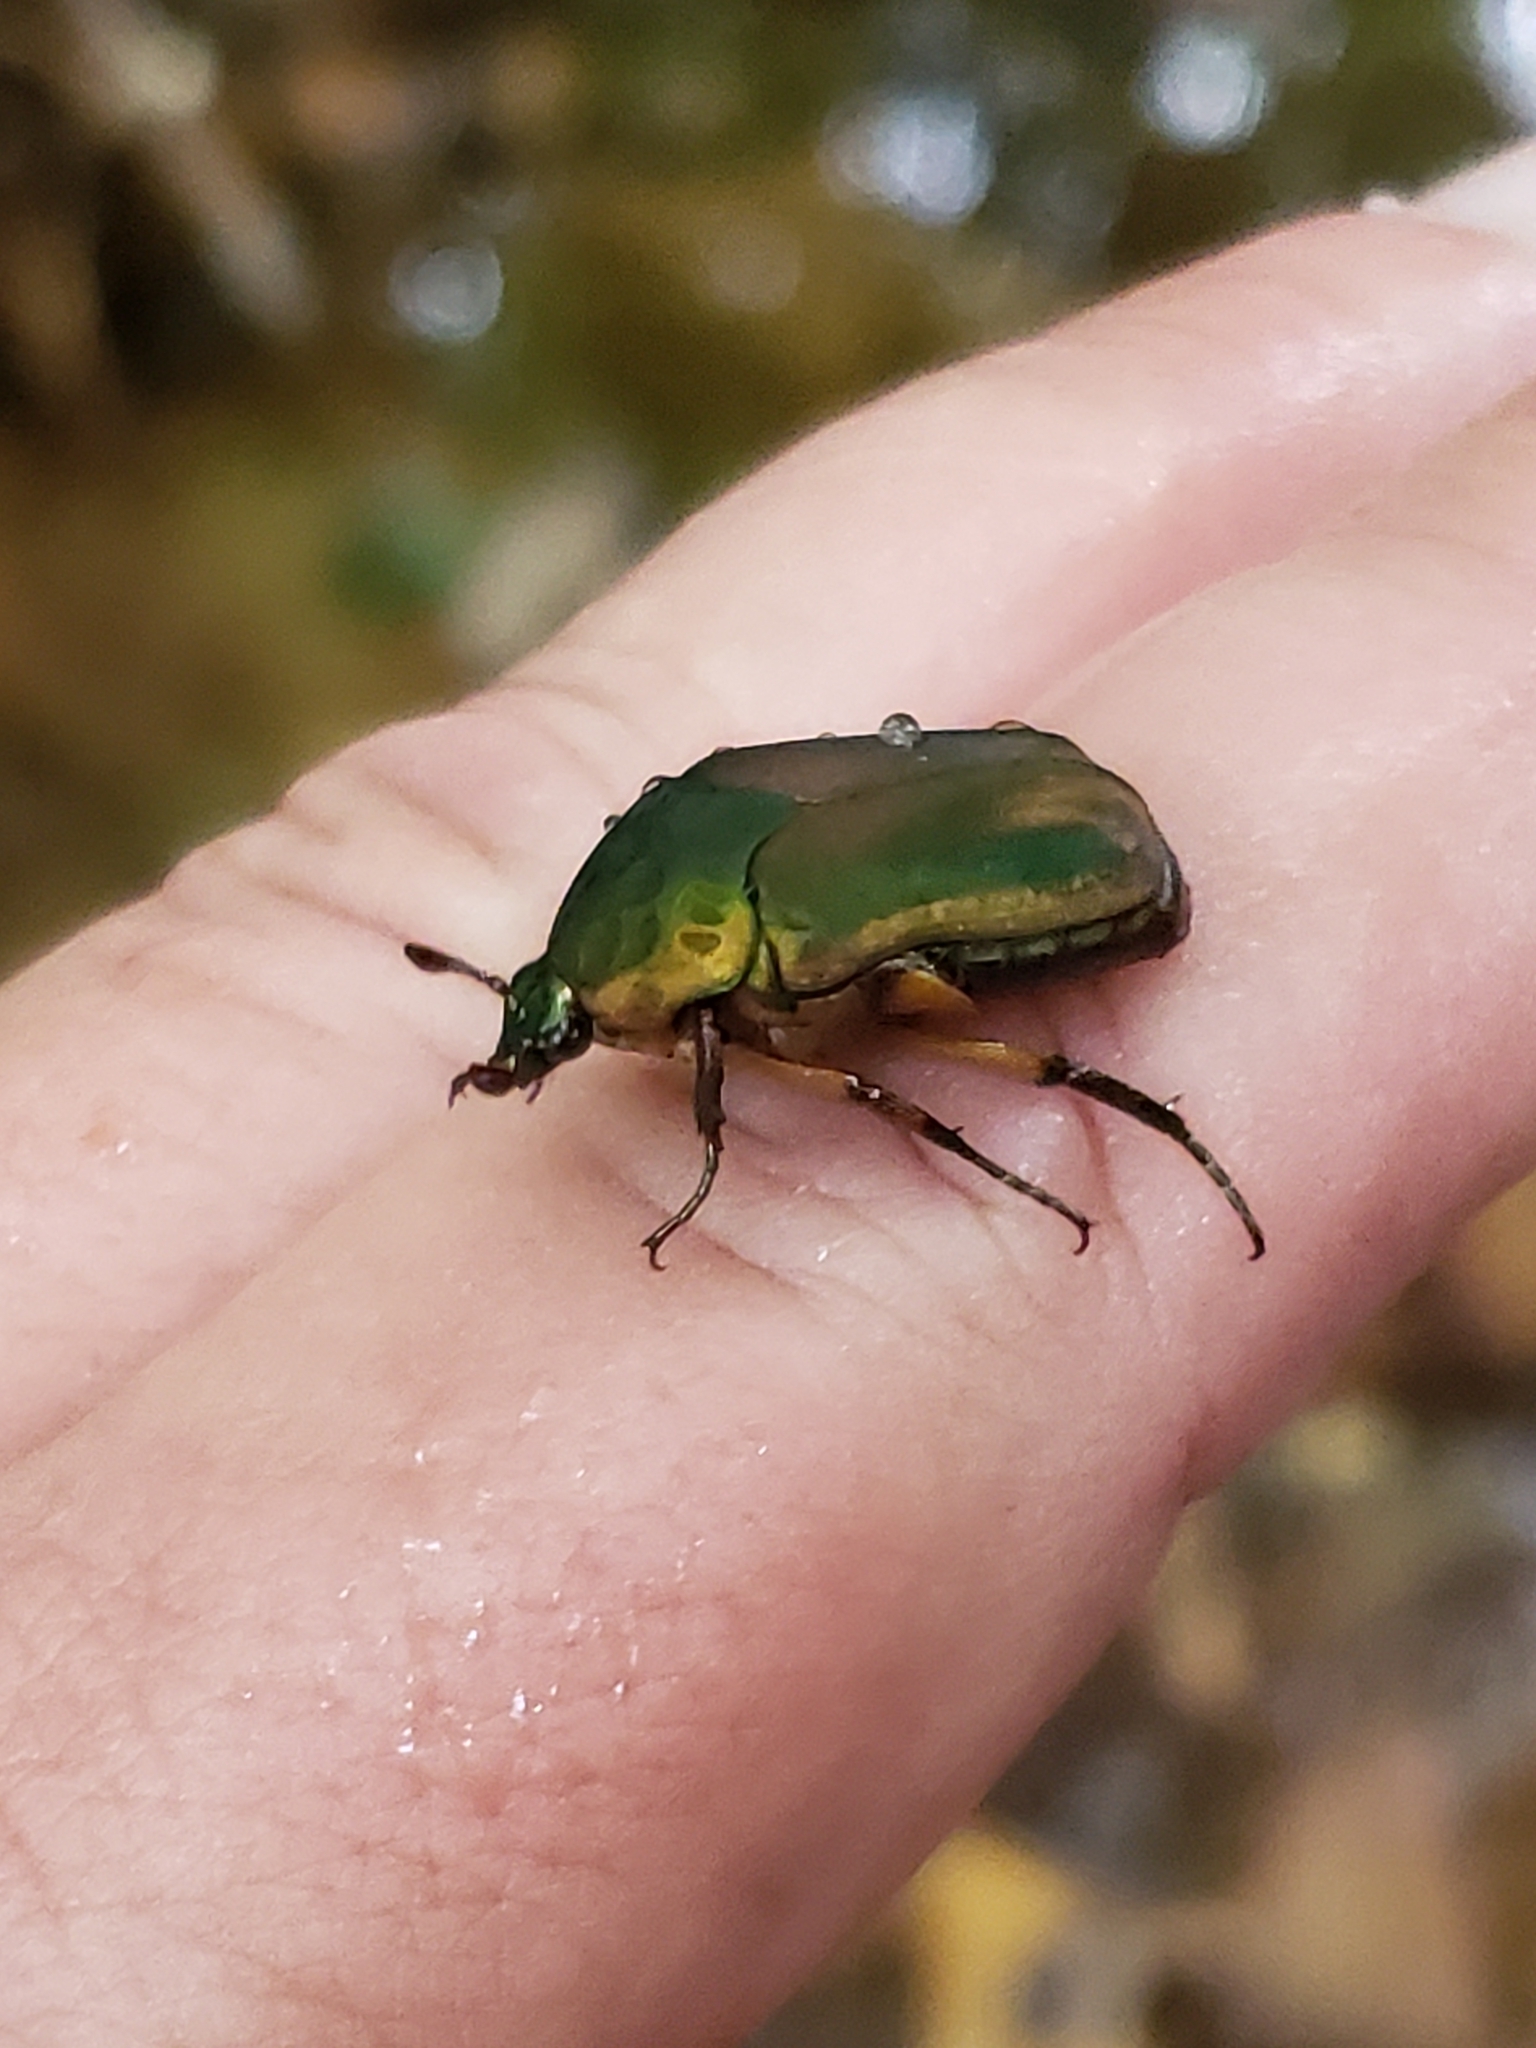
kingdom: Animalia
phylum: Arthropoda
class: Insecta
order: Coleoptera
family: Scarabaeidae
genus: Cotinis
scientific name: Cotinis nitida
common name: Common green june beetle
